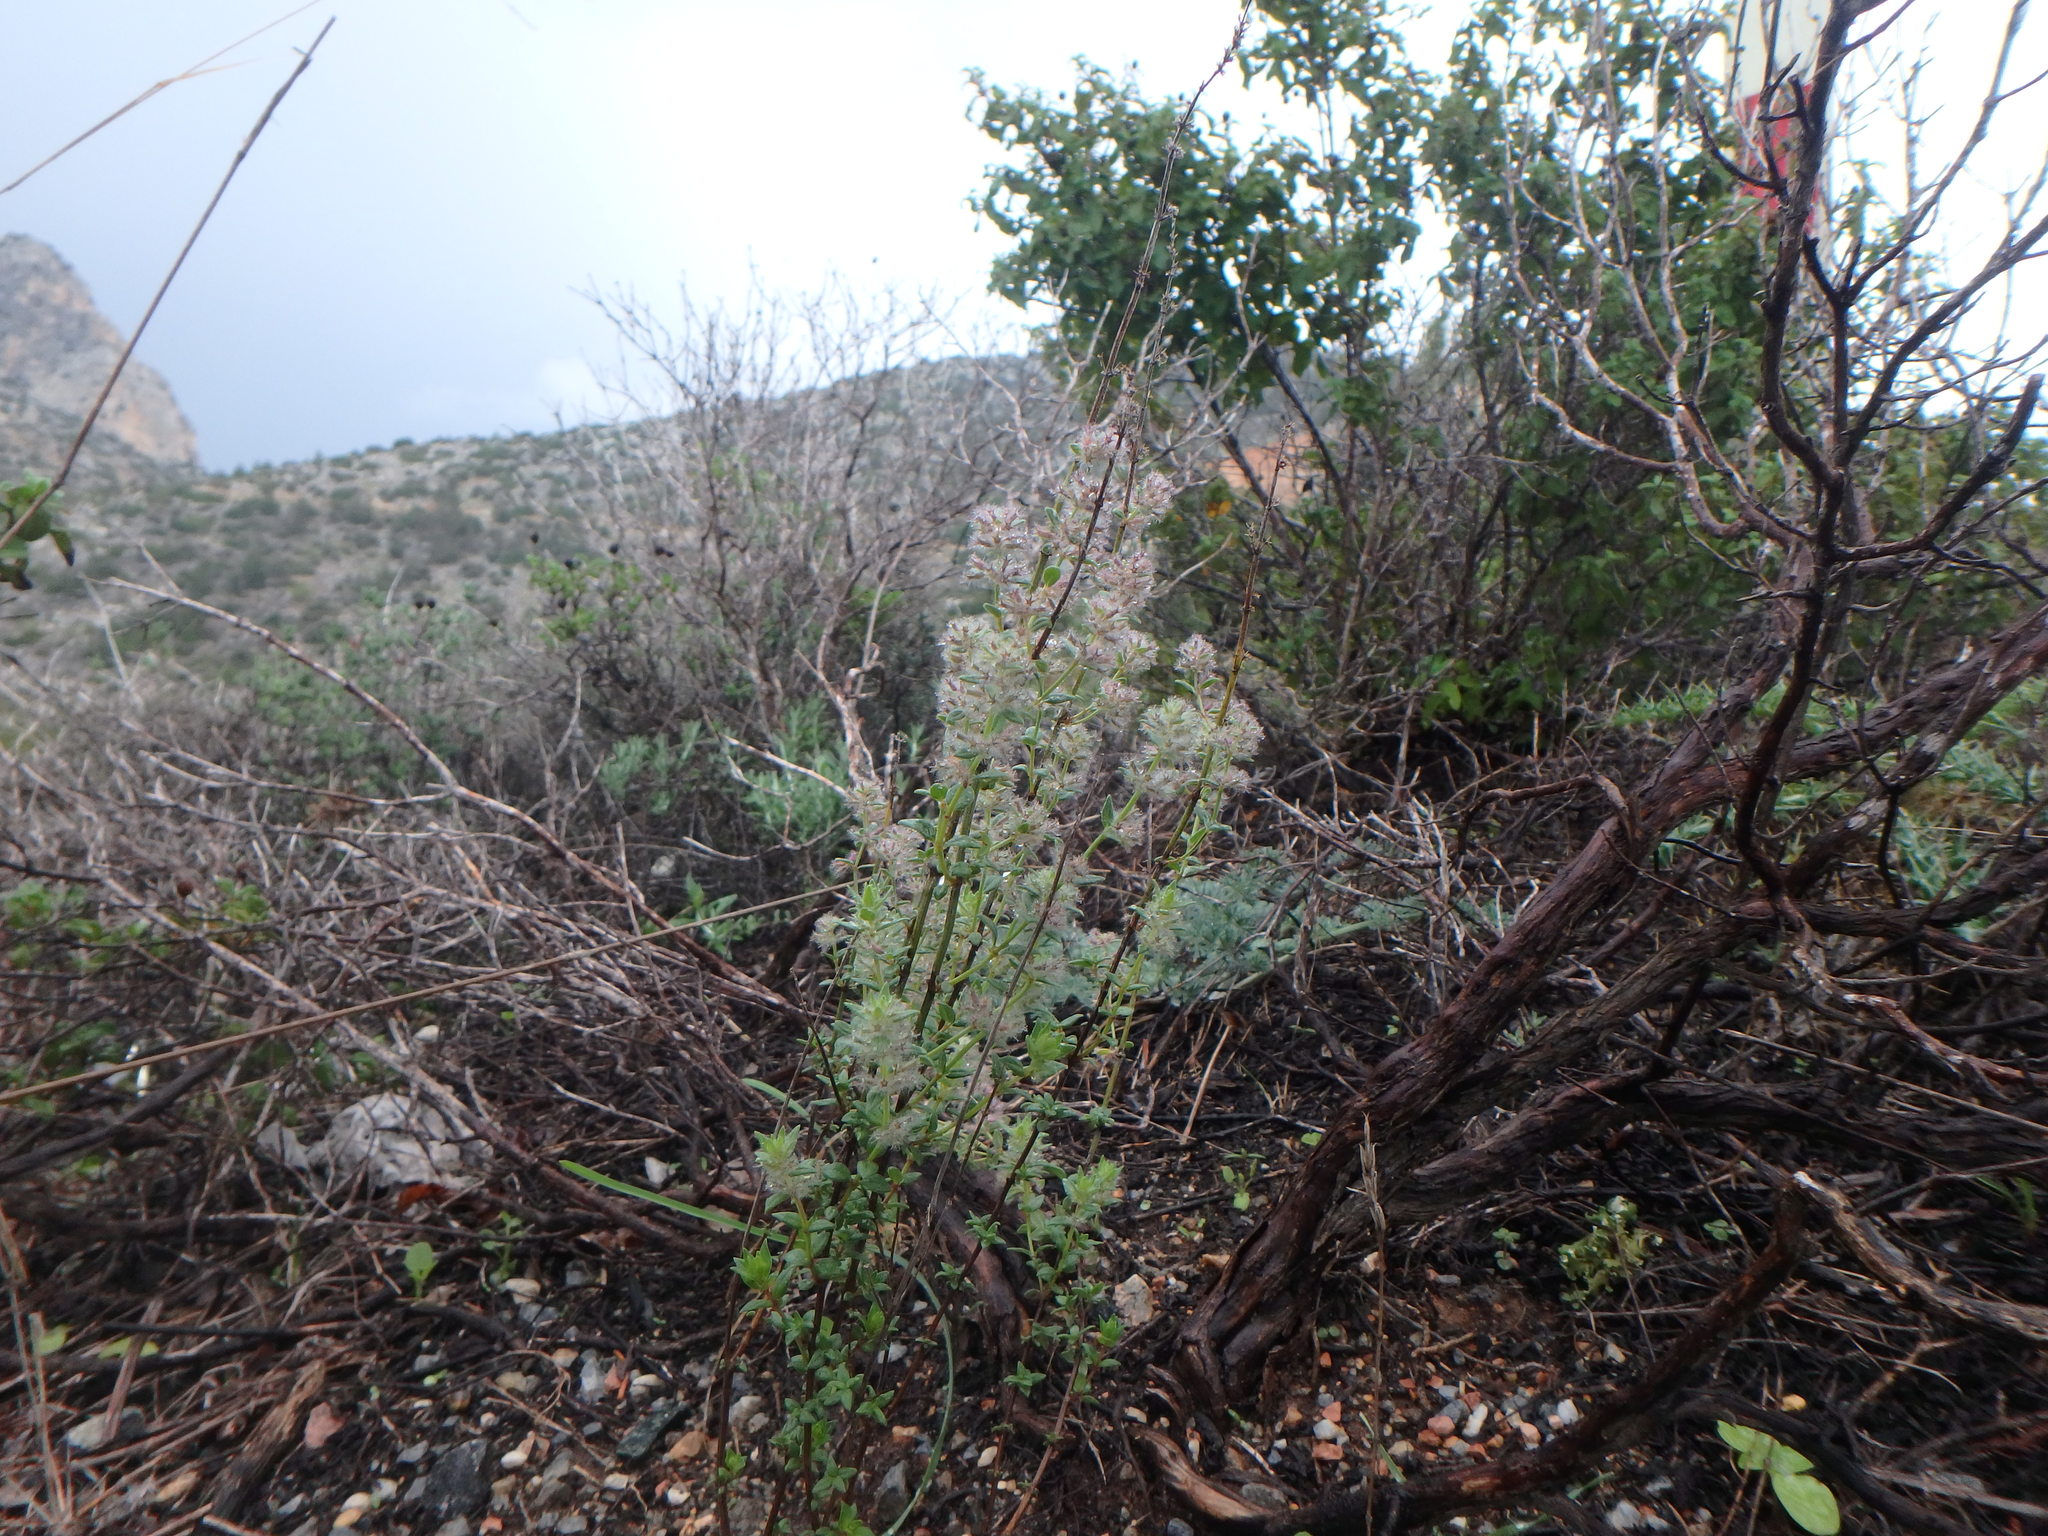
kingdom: Plantae
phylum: Tracheophyta
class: Magnoliopsida
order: Lamiales
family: Lamiaceae
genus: Micromeria
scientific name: Micromeria nervosa
